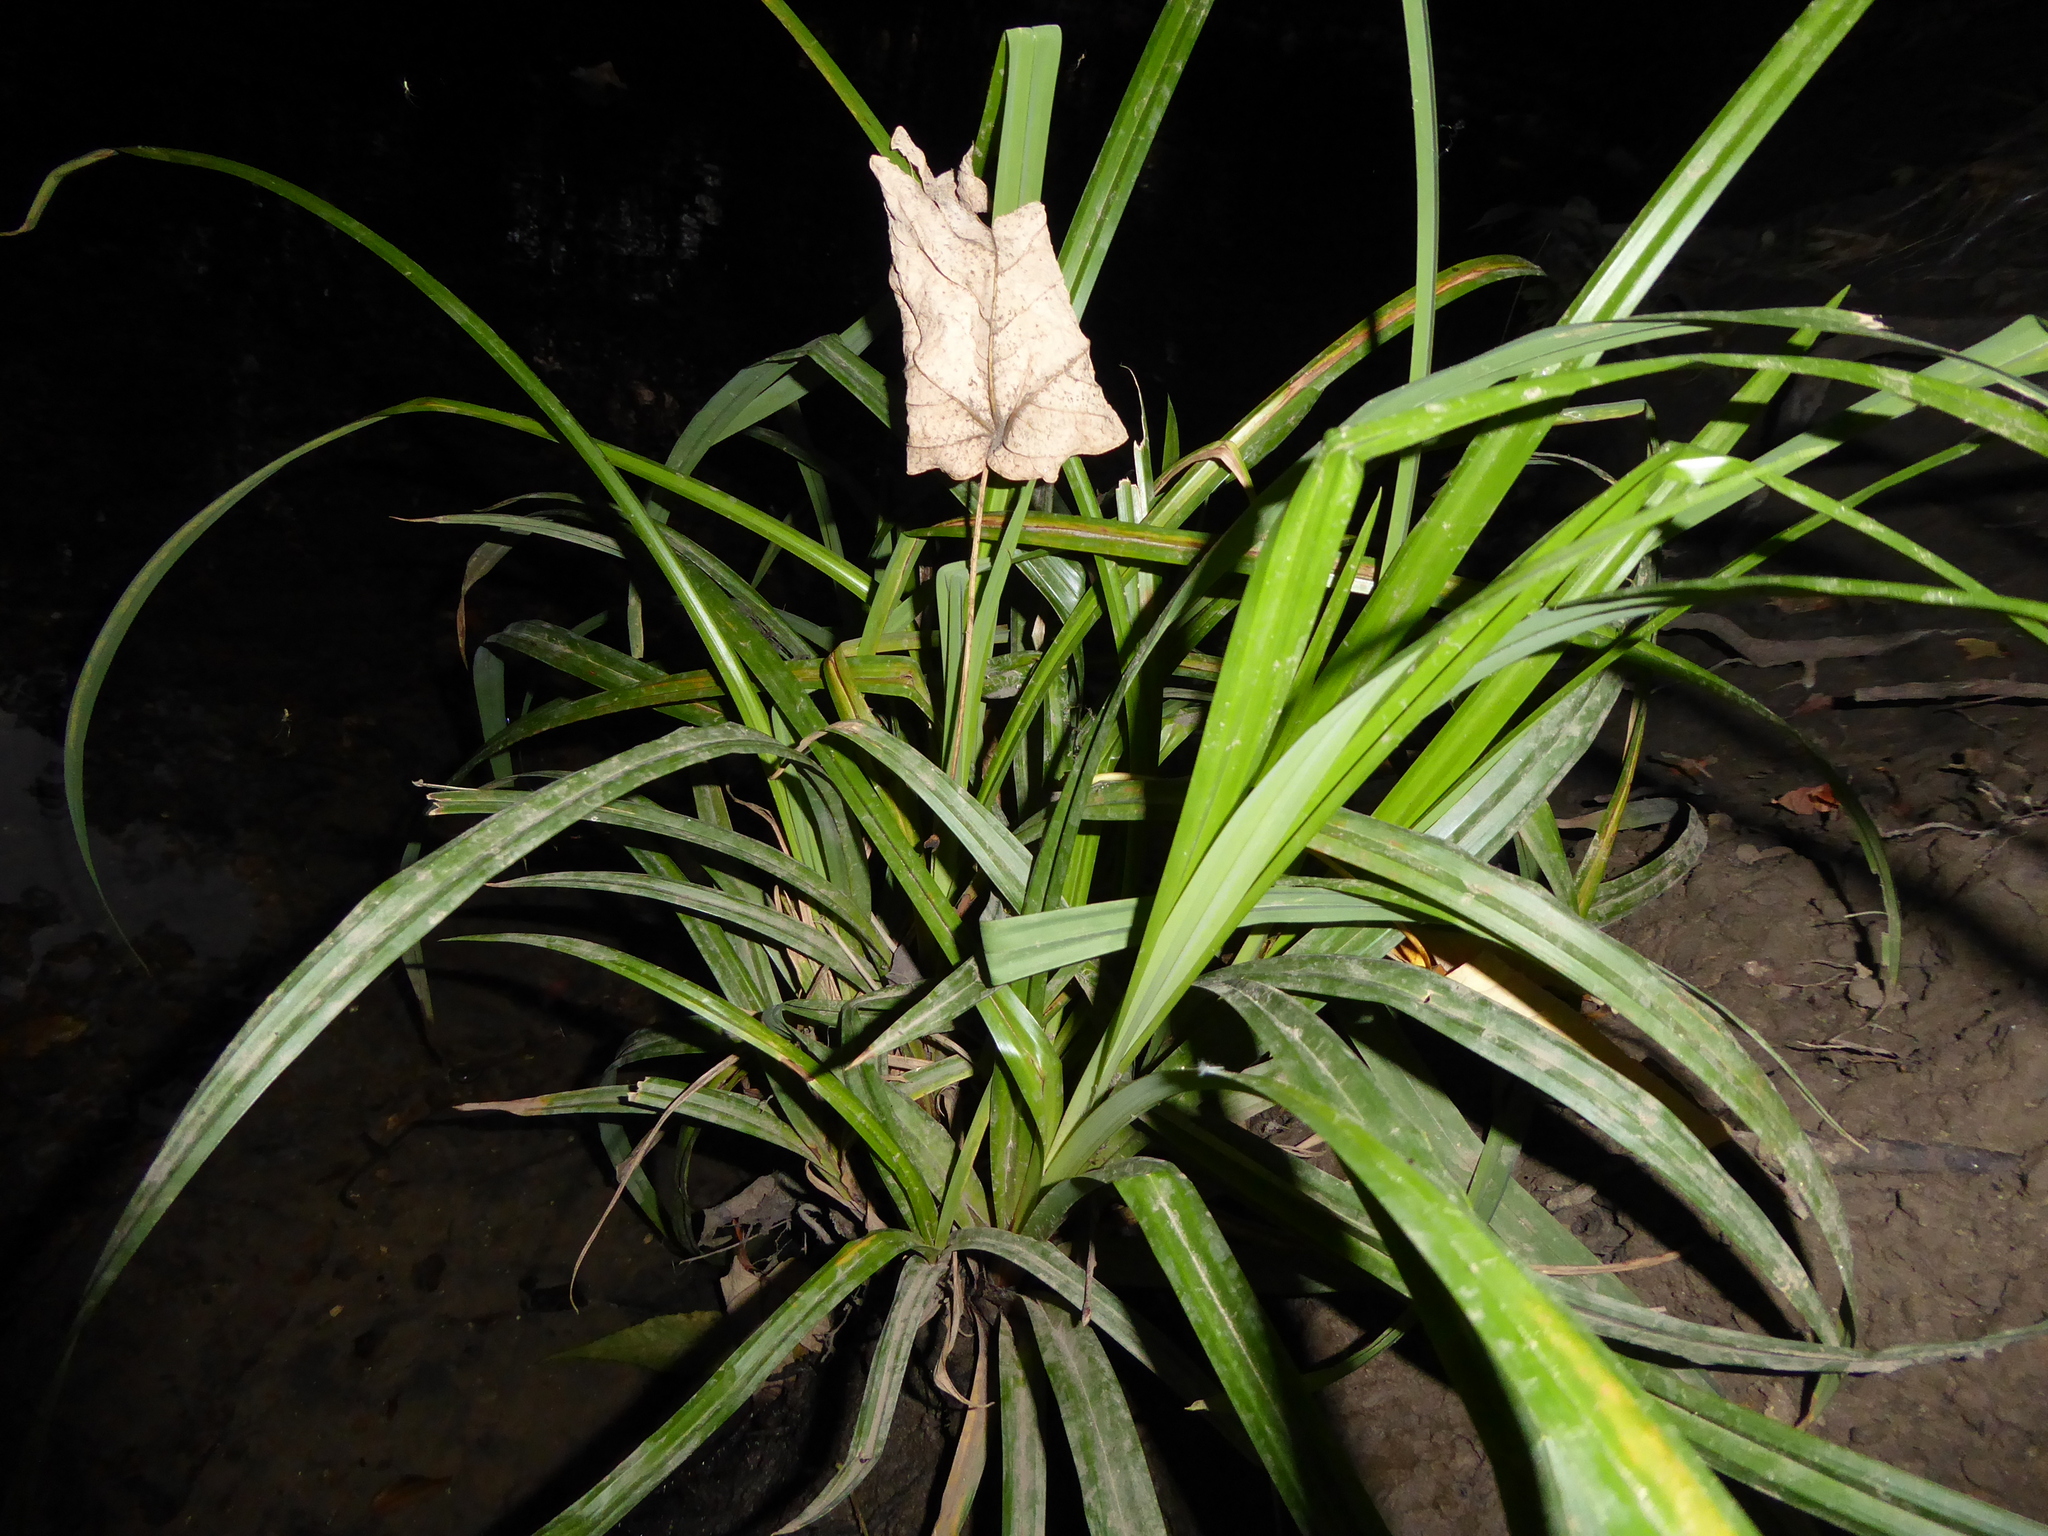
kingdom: Plantae
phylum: Tracheophyta
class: Liliopsida
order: Poales
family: Cyperaceae
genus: Carex
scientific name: Carex pendula
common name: Pendulous sedge
